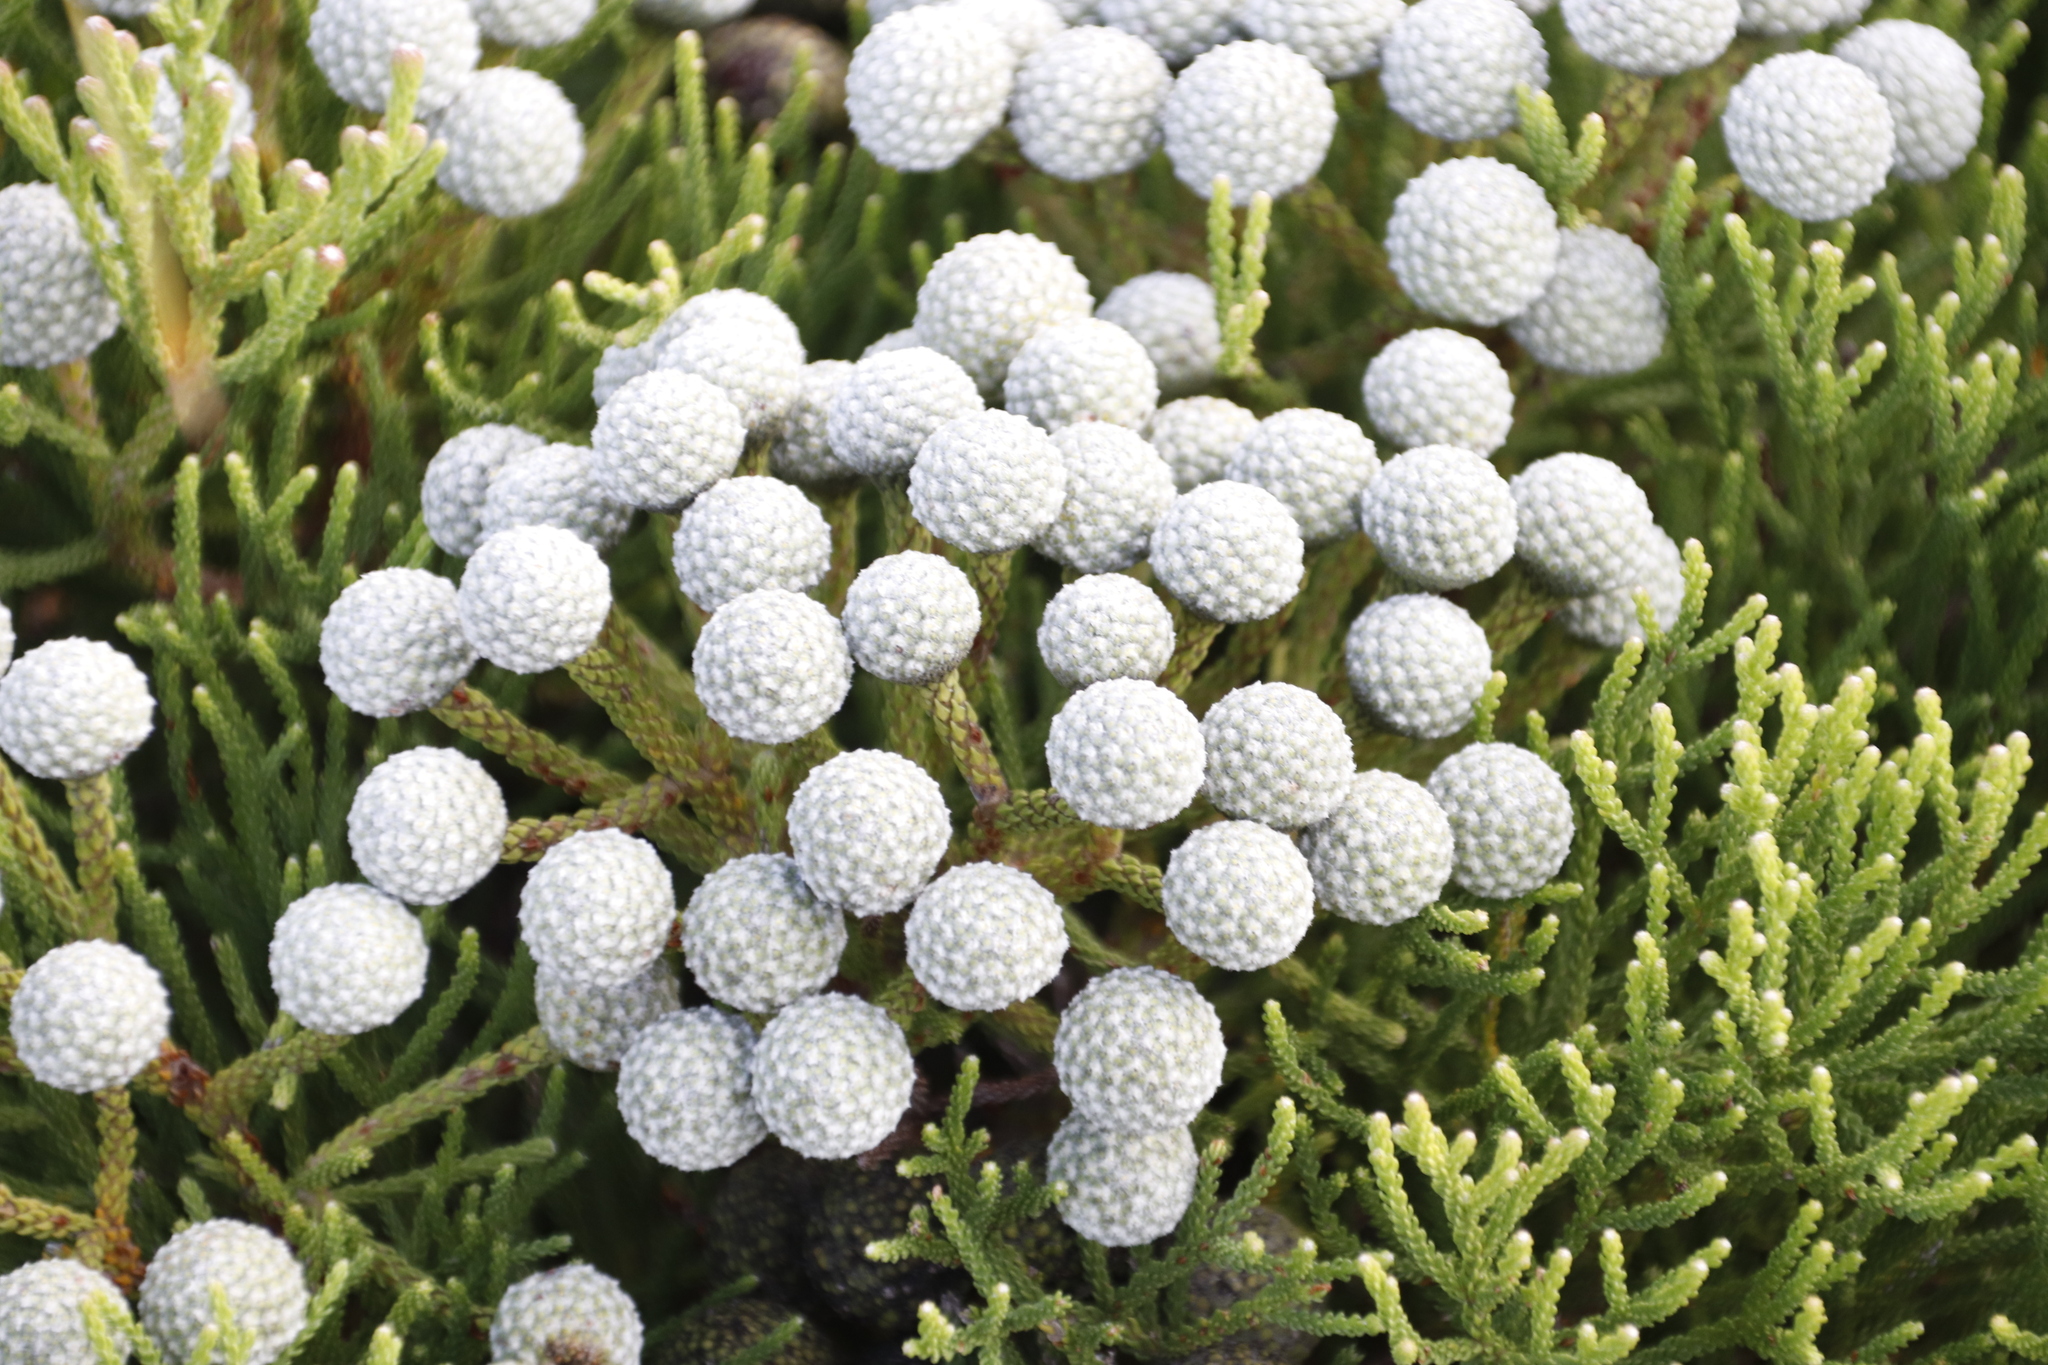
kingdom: Plantae
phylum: Tracheophyta
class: Magnoliopsida
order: Bruniales
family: Bruniaceae
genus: Brunia
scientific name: Brunia noduliflora
